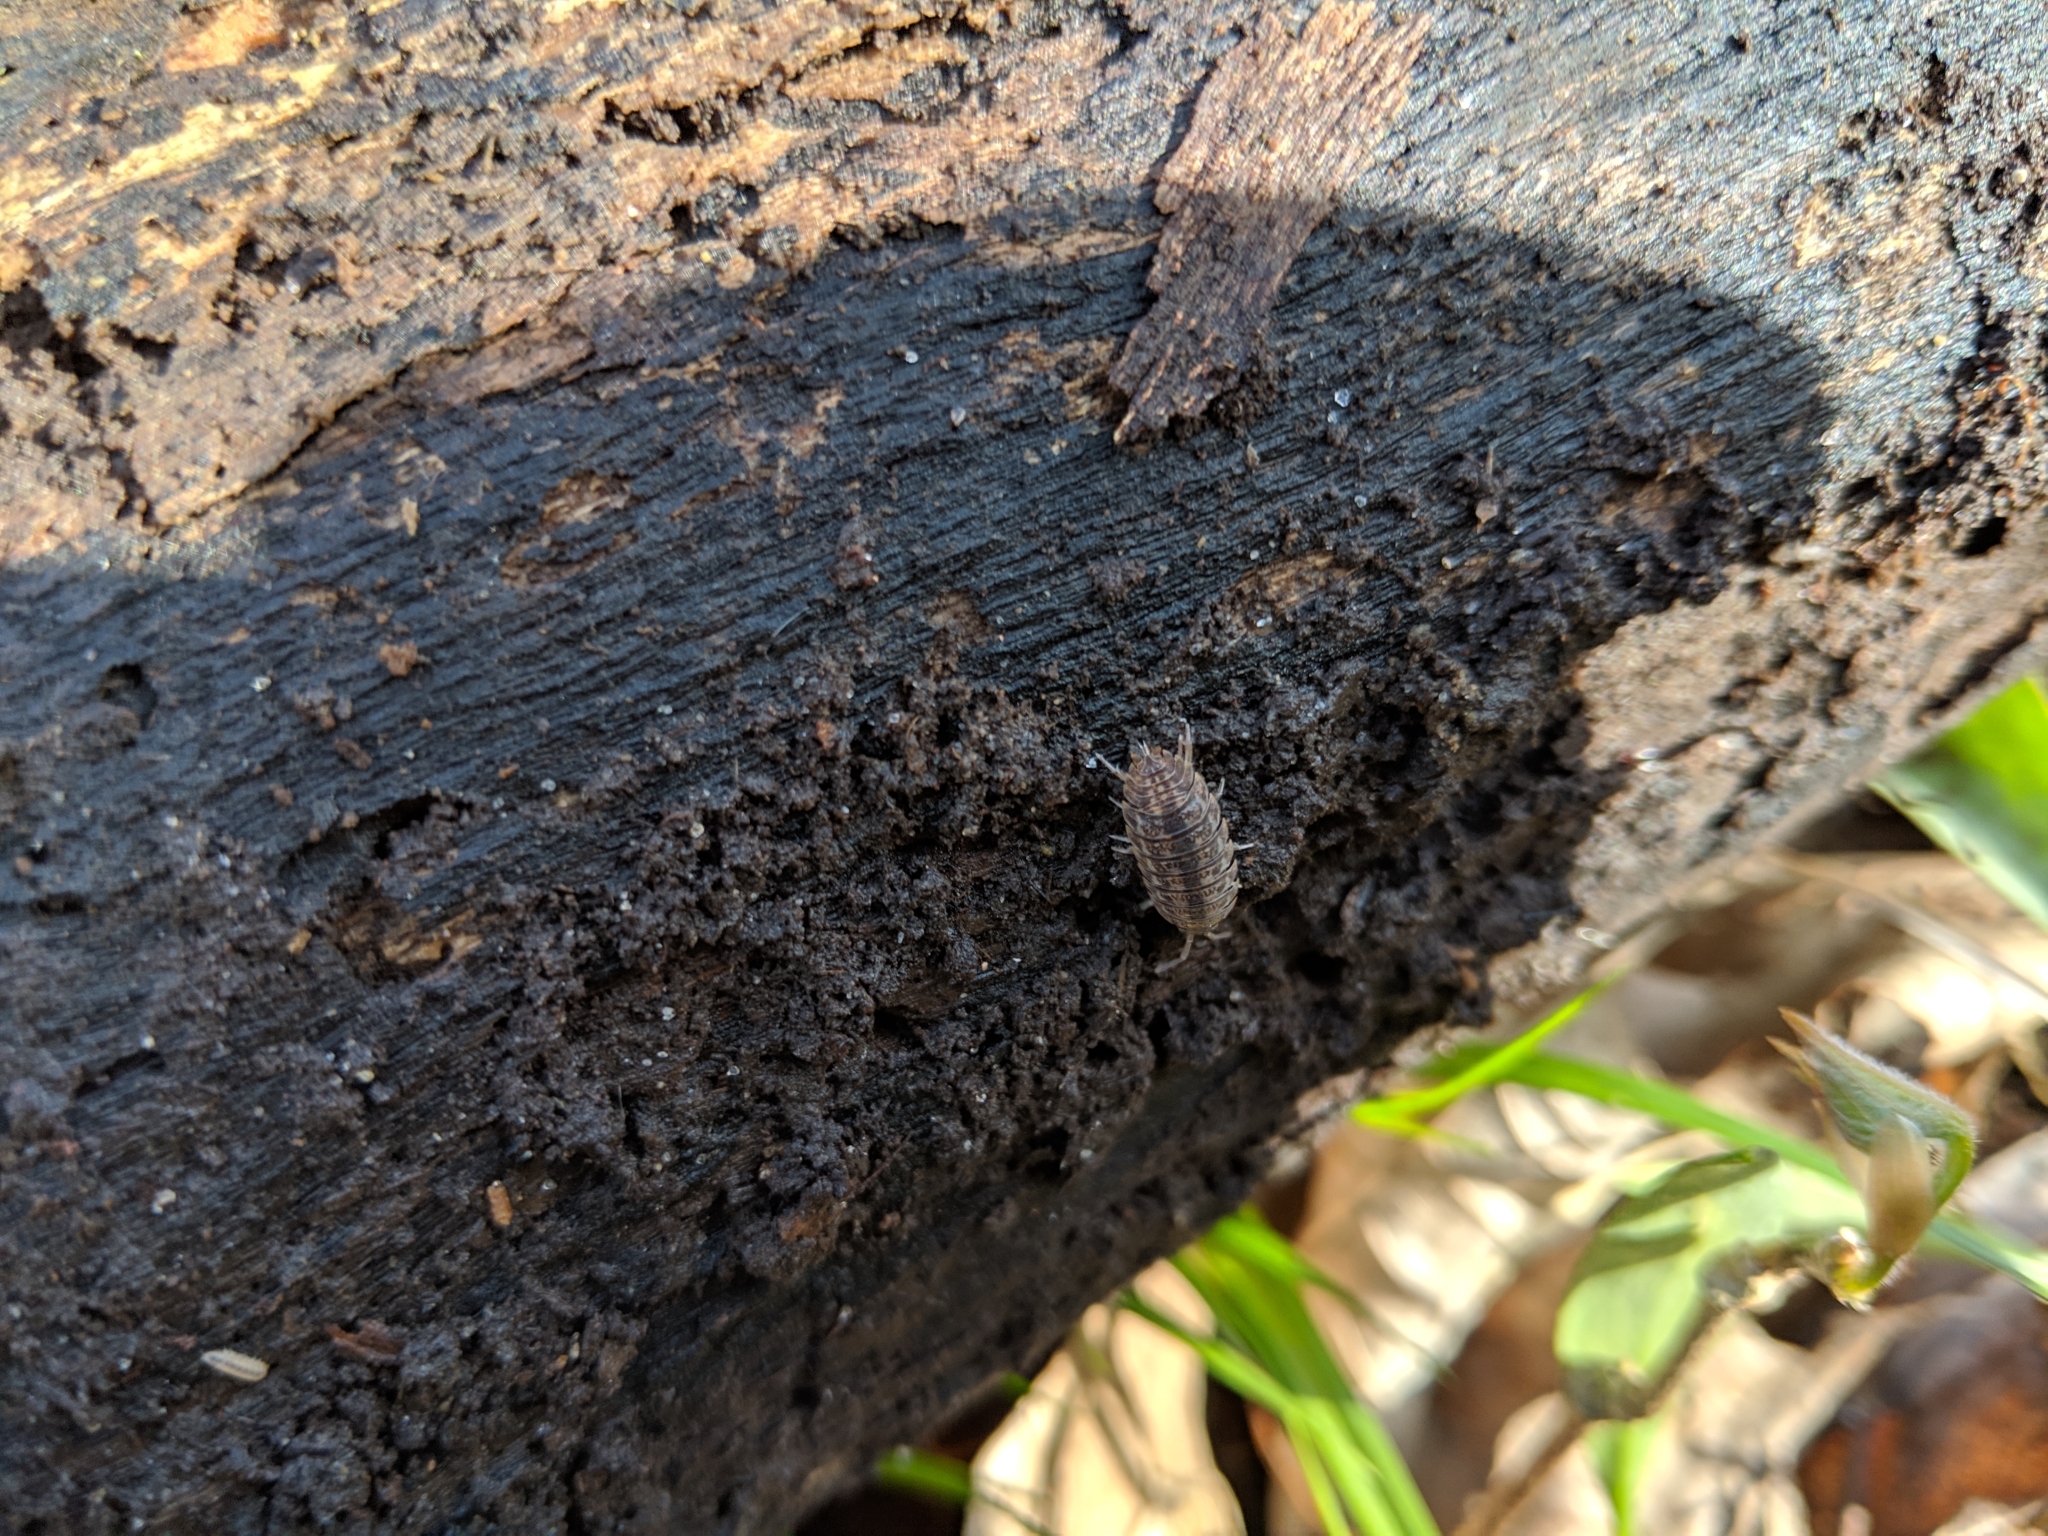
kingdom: Animalia
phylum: Arthropoda
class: Malacostraca
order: Isopoda
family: Trachelipodidae
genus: Trachelipus
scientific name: Trachelipus rathkii
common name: Isopod
